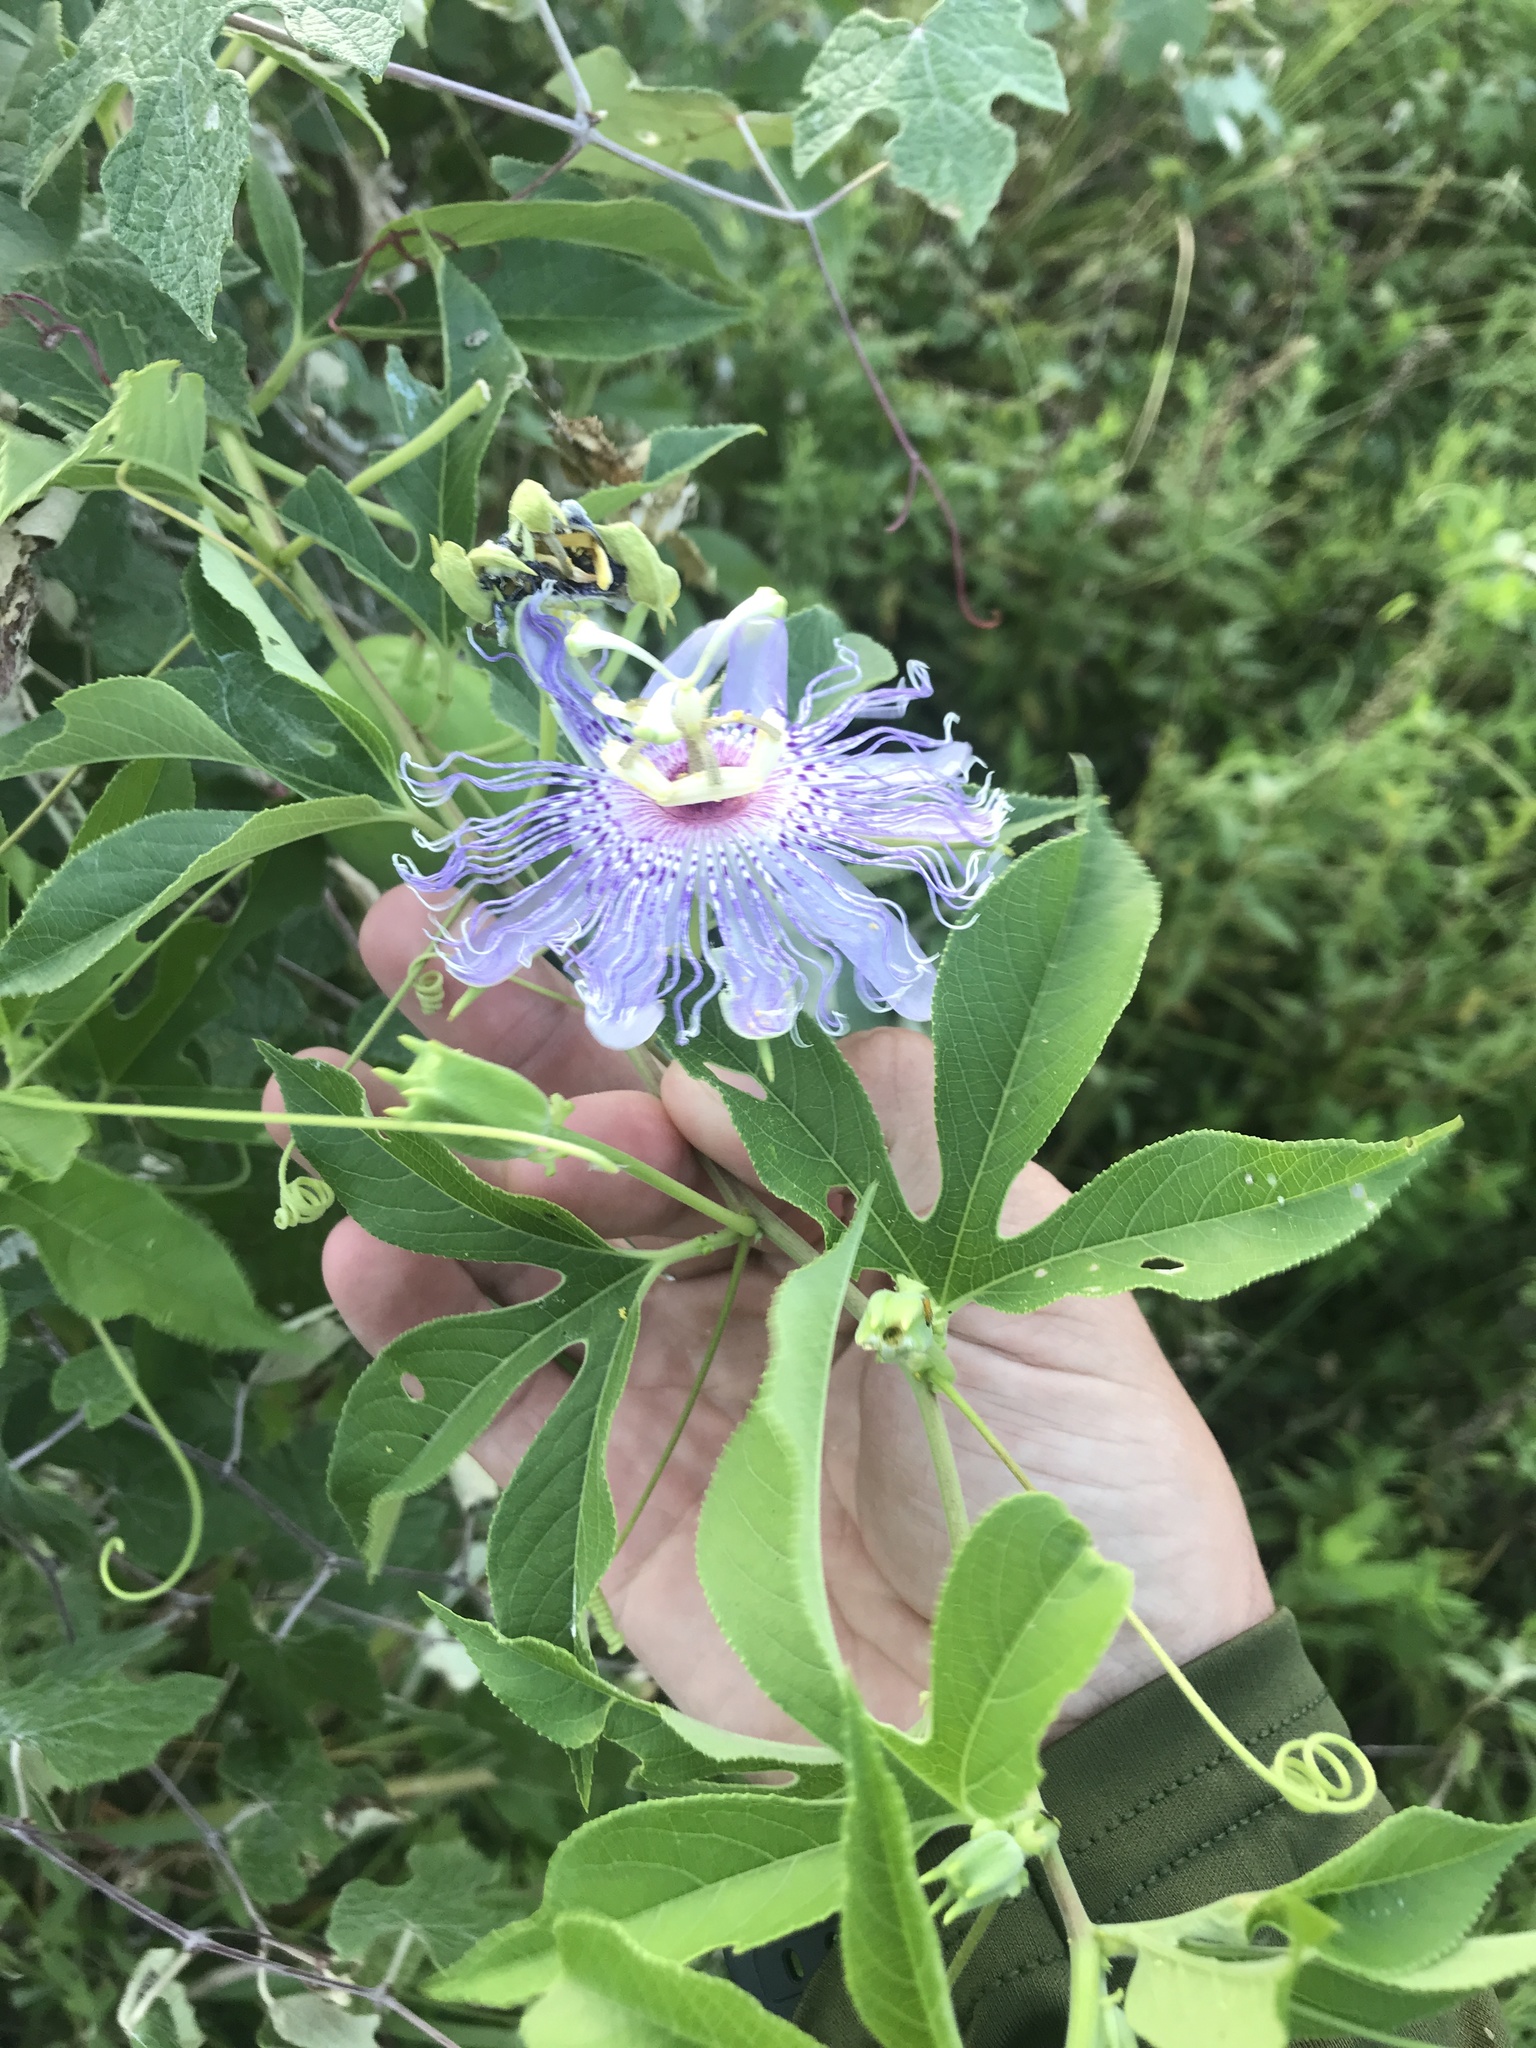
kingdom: Plantae
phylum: Tracheophyta
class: Magnoliopsida
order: Malpighiales
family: Passifloraceae
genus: Passiflora
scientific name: Passiflora incarnata
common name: Apricot-vine
